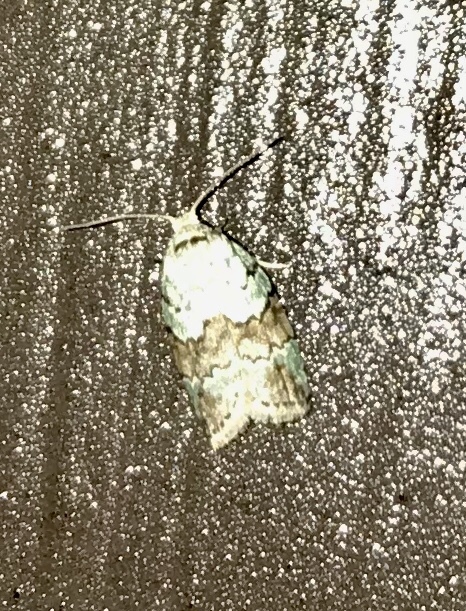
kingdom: Animalia
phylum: Arthropoda
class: Insecta
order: Lepidoptera
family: Nolidae
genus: Afrida
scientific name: Afrida ydatodes
